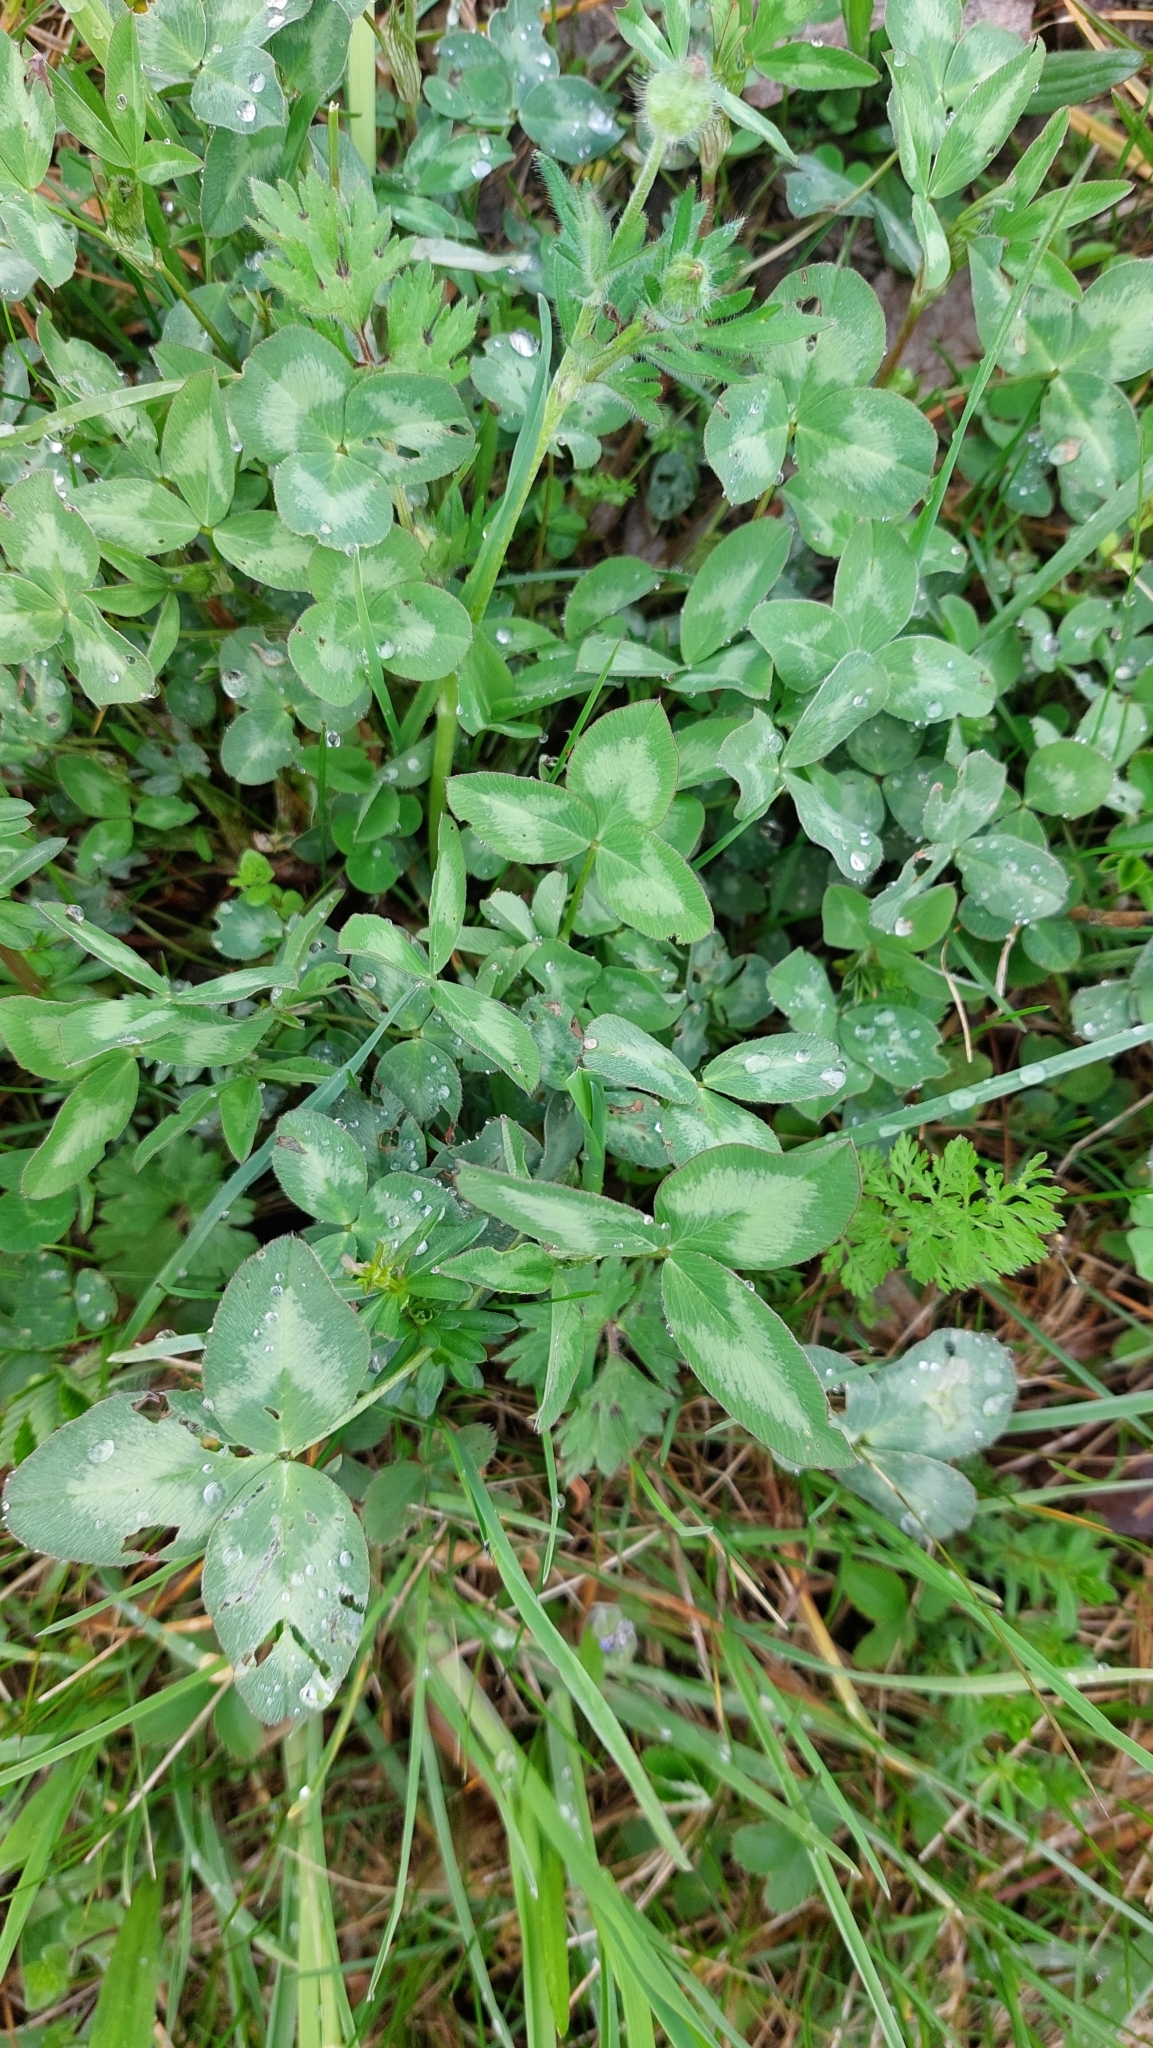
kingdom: Plantae
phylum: Tracheophyta
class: Magnoliopsida
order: Fabales
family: Fabaceae
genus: Trifolium
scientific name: Trifolium pratense
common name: Red clover
